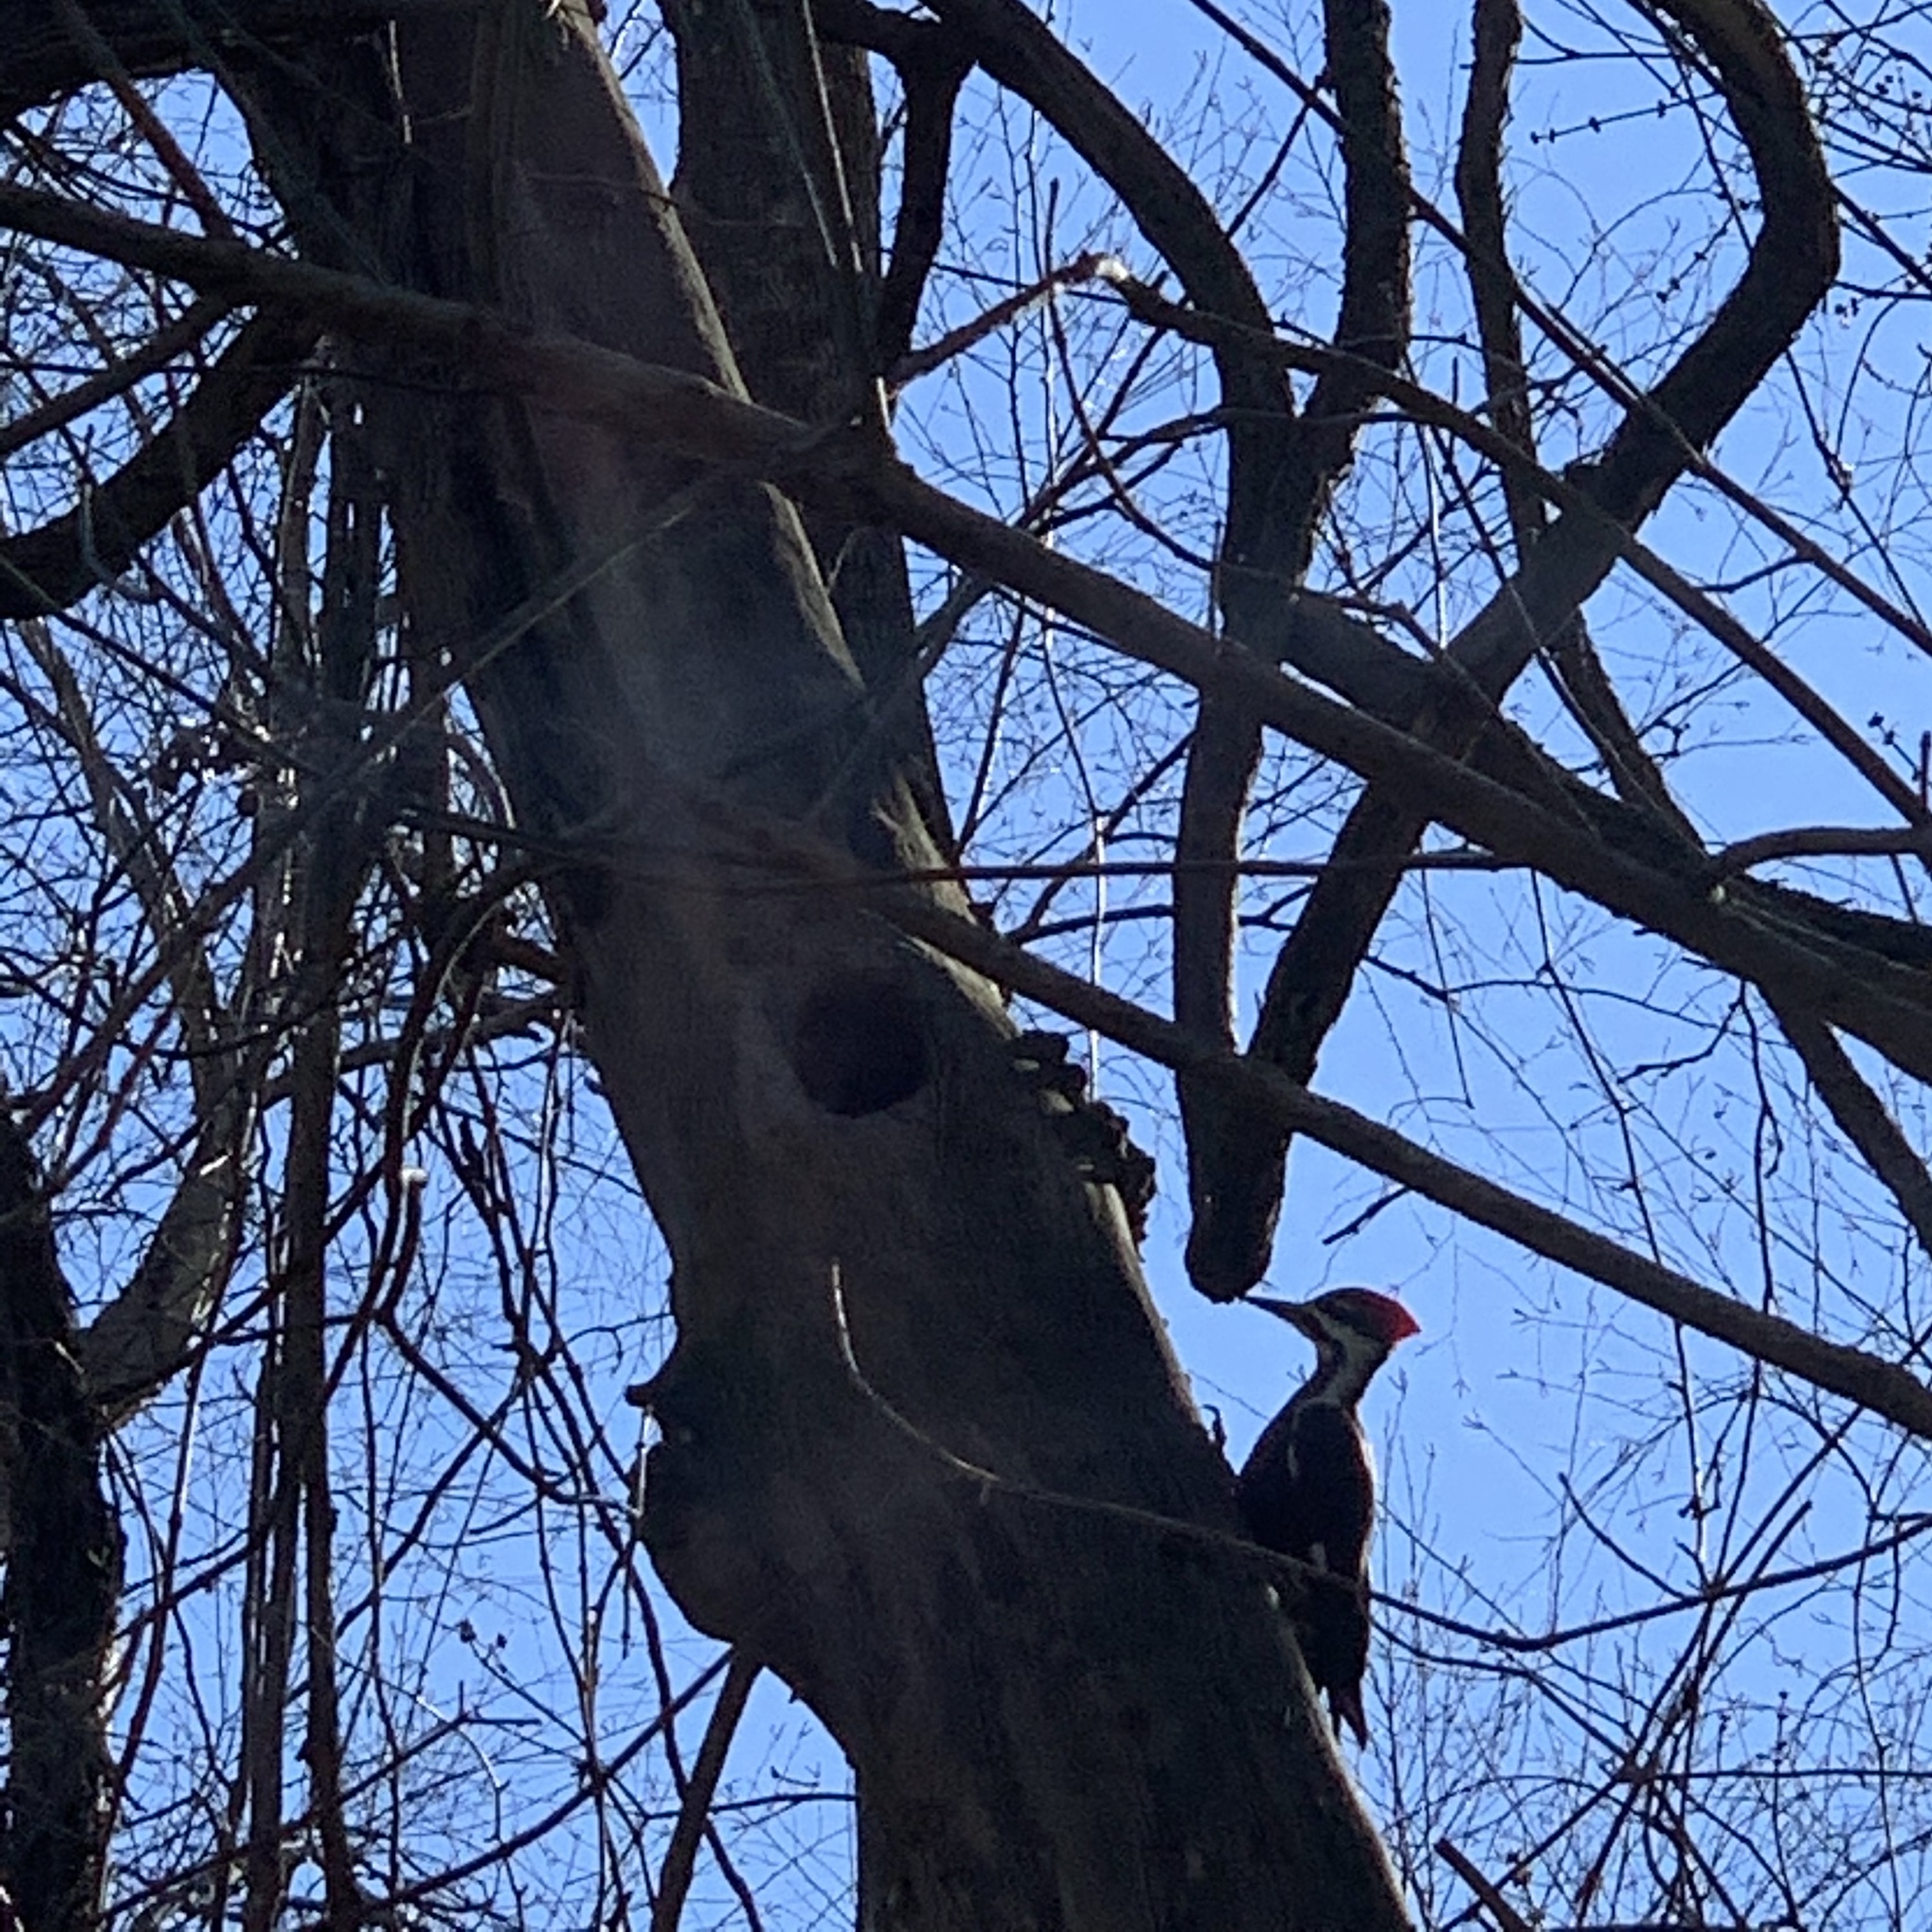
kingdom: Animalia
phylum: Chordata
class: Aves
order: Piciformes
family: Picidae
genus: Dryocopus
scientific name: Dryocopus pileatus
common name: Pileated woodpecker
